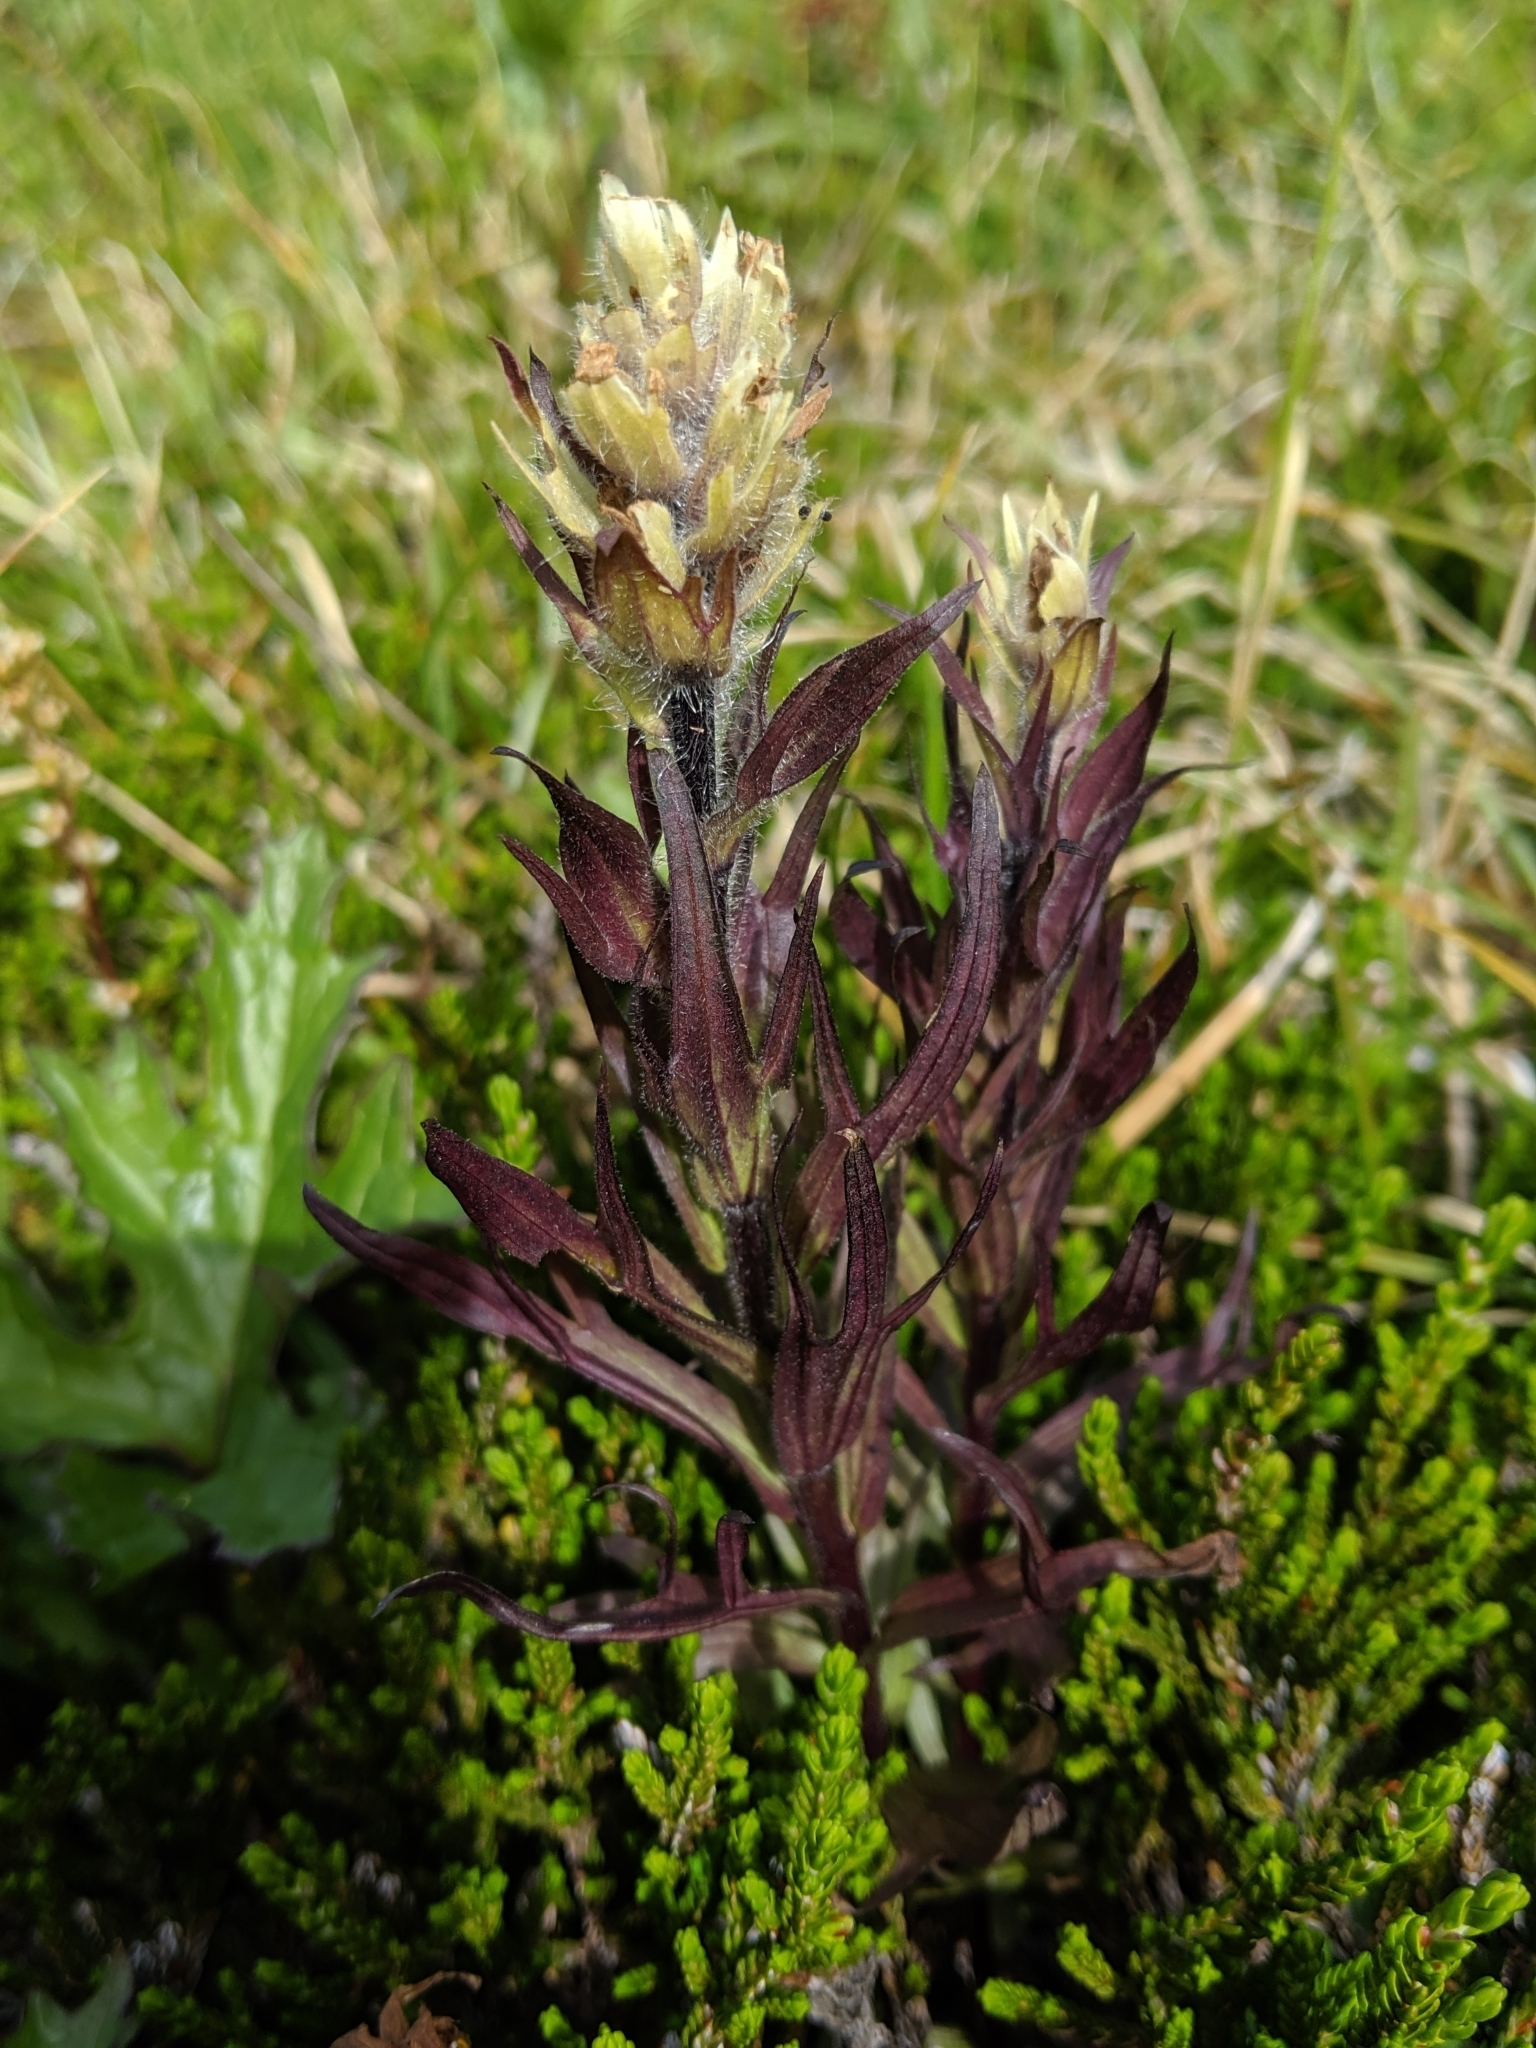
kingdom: Plantae
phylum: Tracheophyta
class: Magnoliopsida
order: Lamiales
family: Orobanchaceae
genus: Castilleja
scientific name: Castilleja parviflora
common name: Mountain paintbrush
